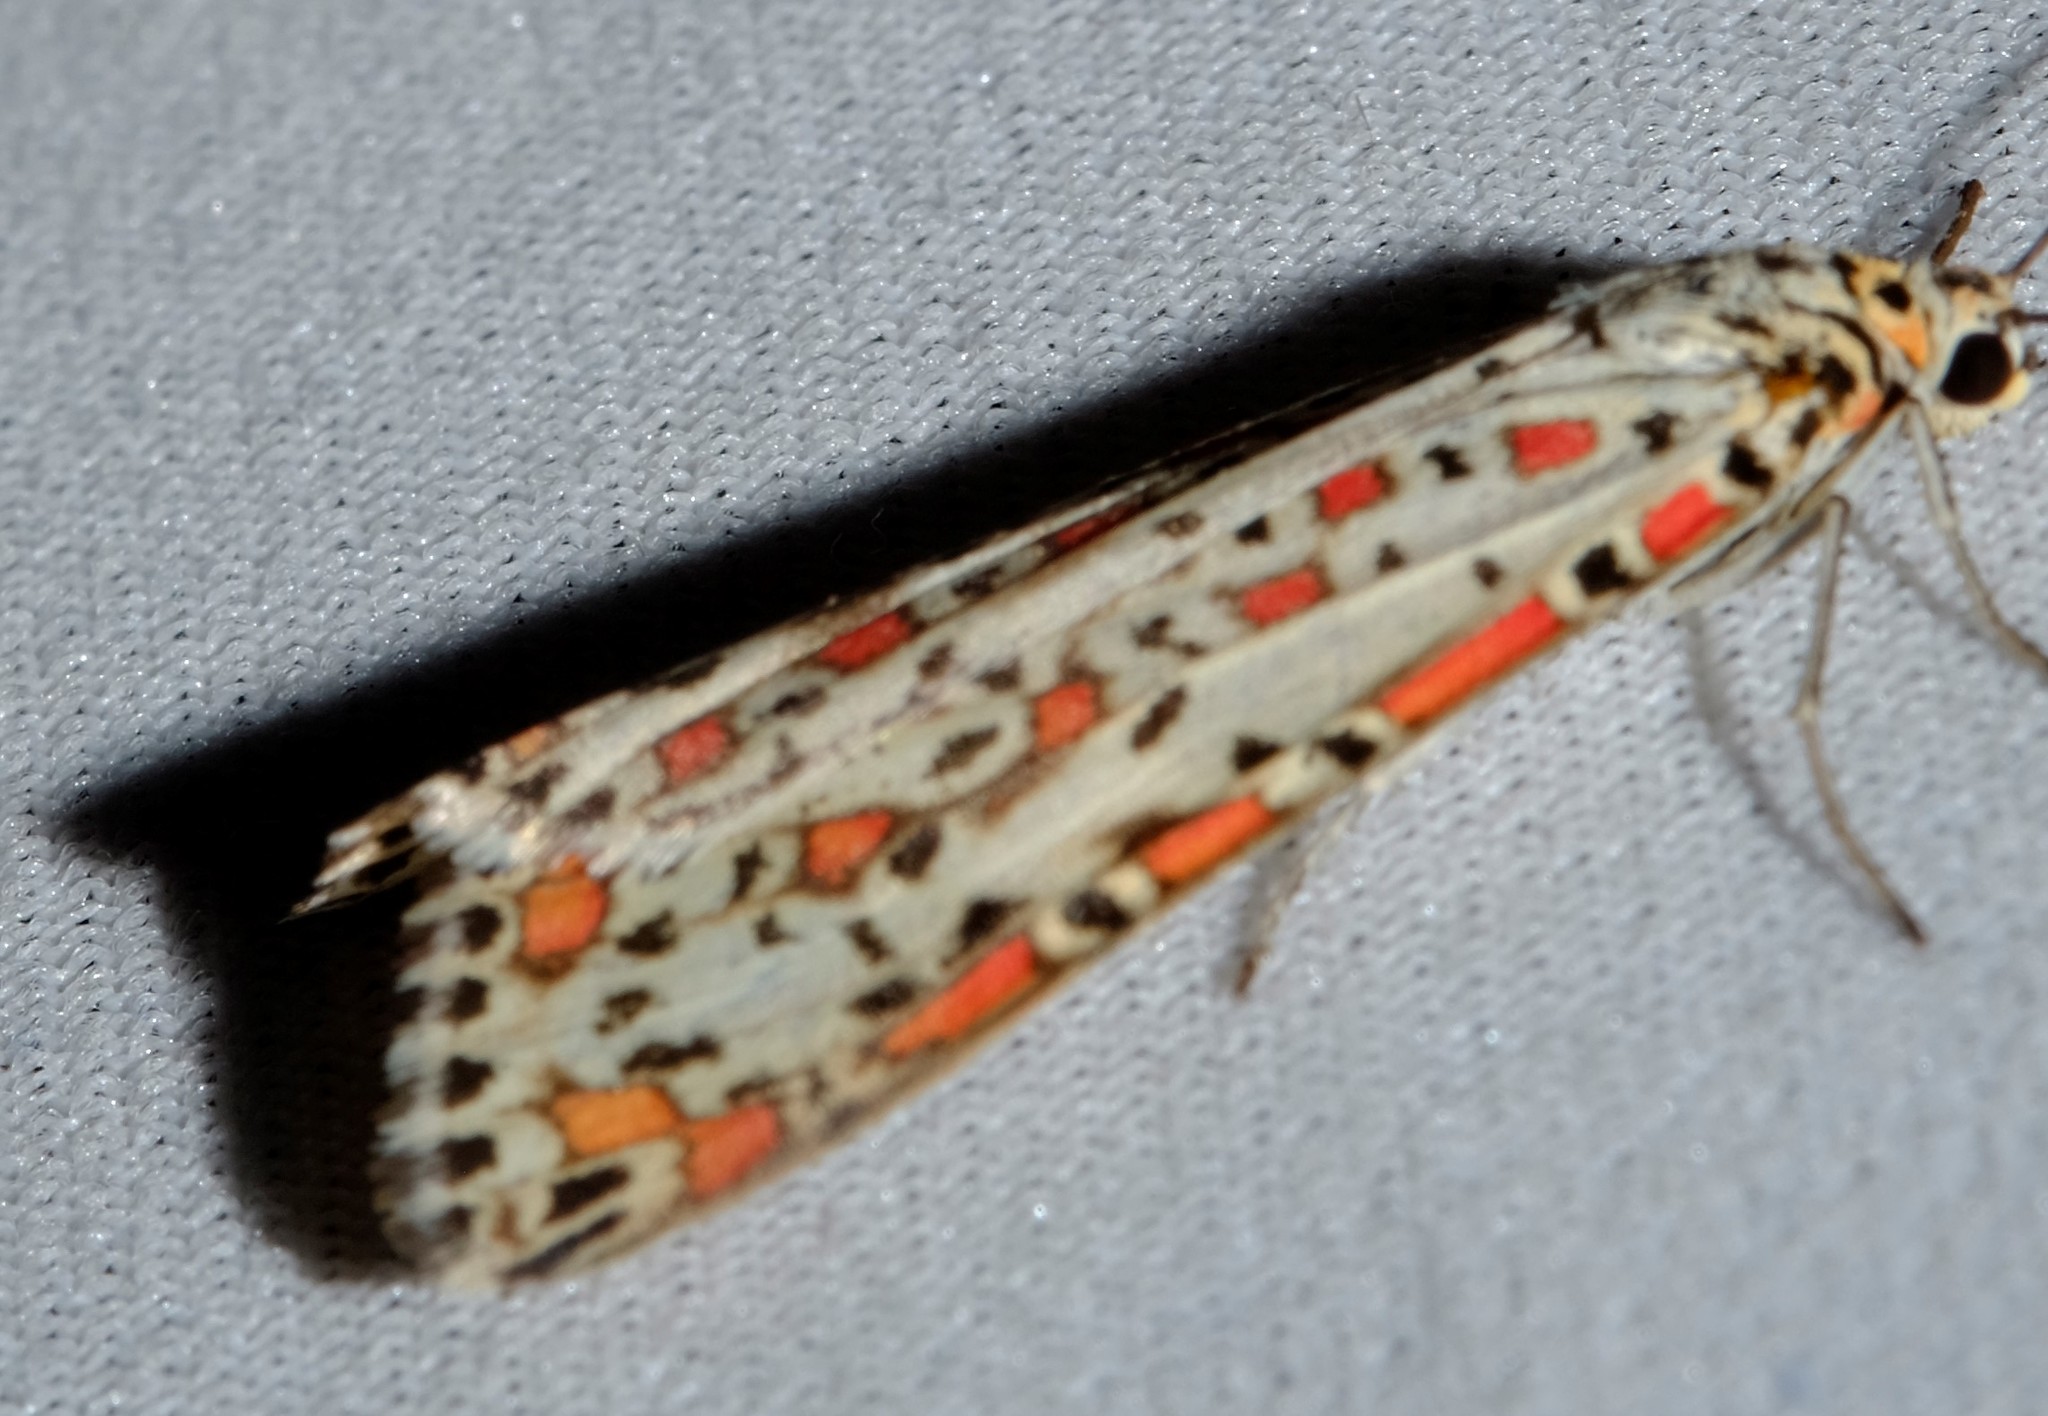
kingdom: Animalia
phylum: Arthropoda
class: Insecta
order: Lepidoptera
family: Erebidae
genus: Utetheisa
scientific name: Utetheisa pulchelloides
